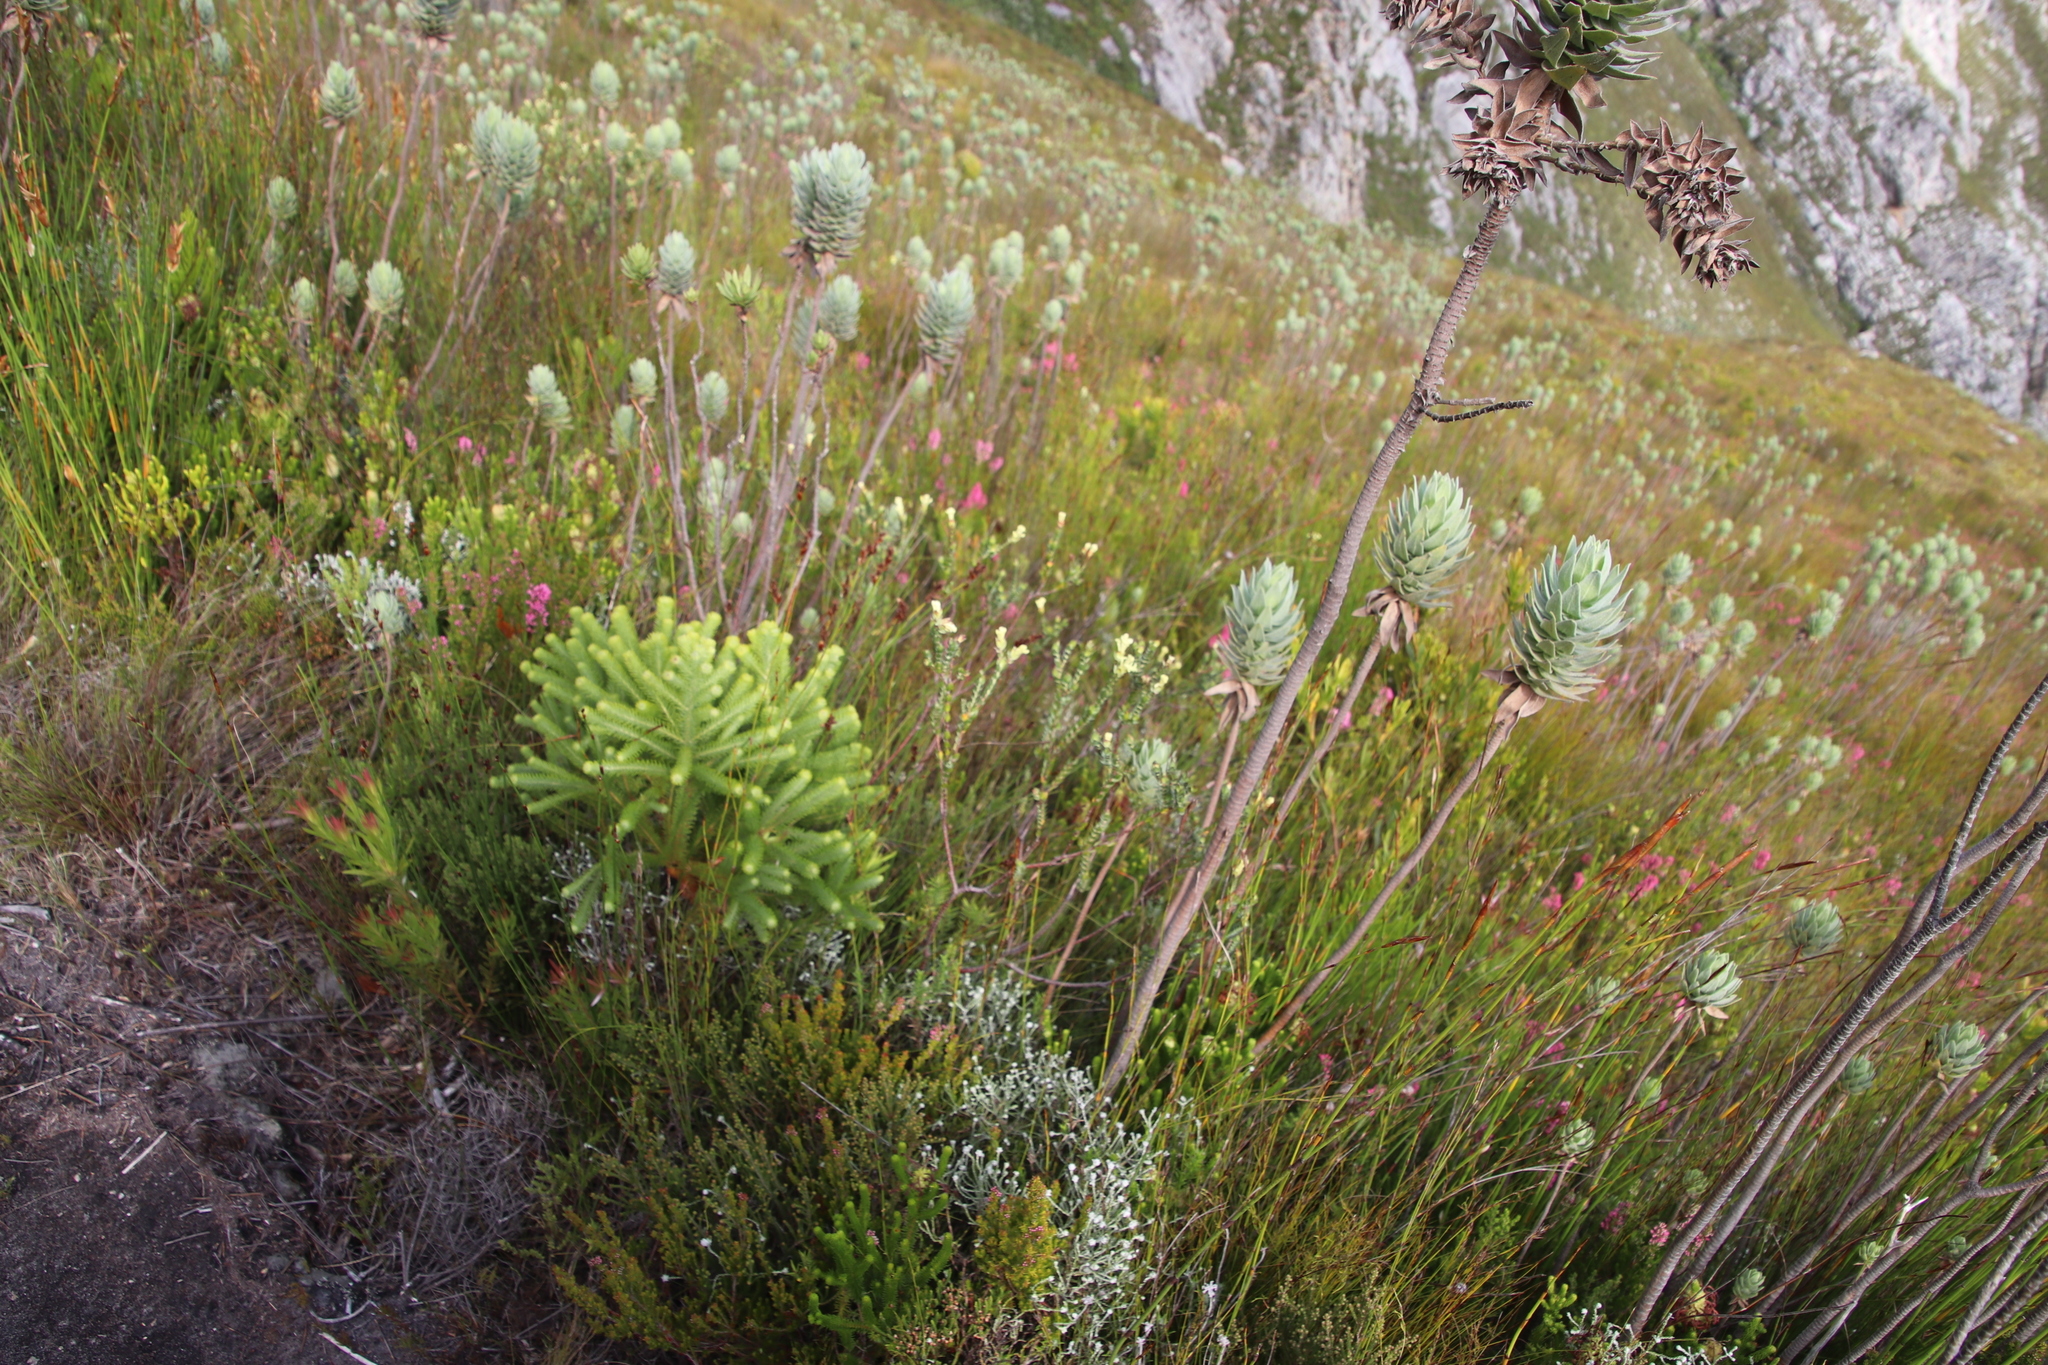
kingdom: Plantae
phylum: Tracheophyta
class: Magnoliopsida
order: Malvales
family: Thymelaeaceae
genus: Gnidia
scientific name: Gnidia oppositifolia
